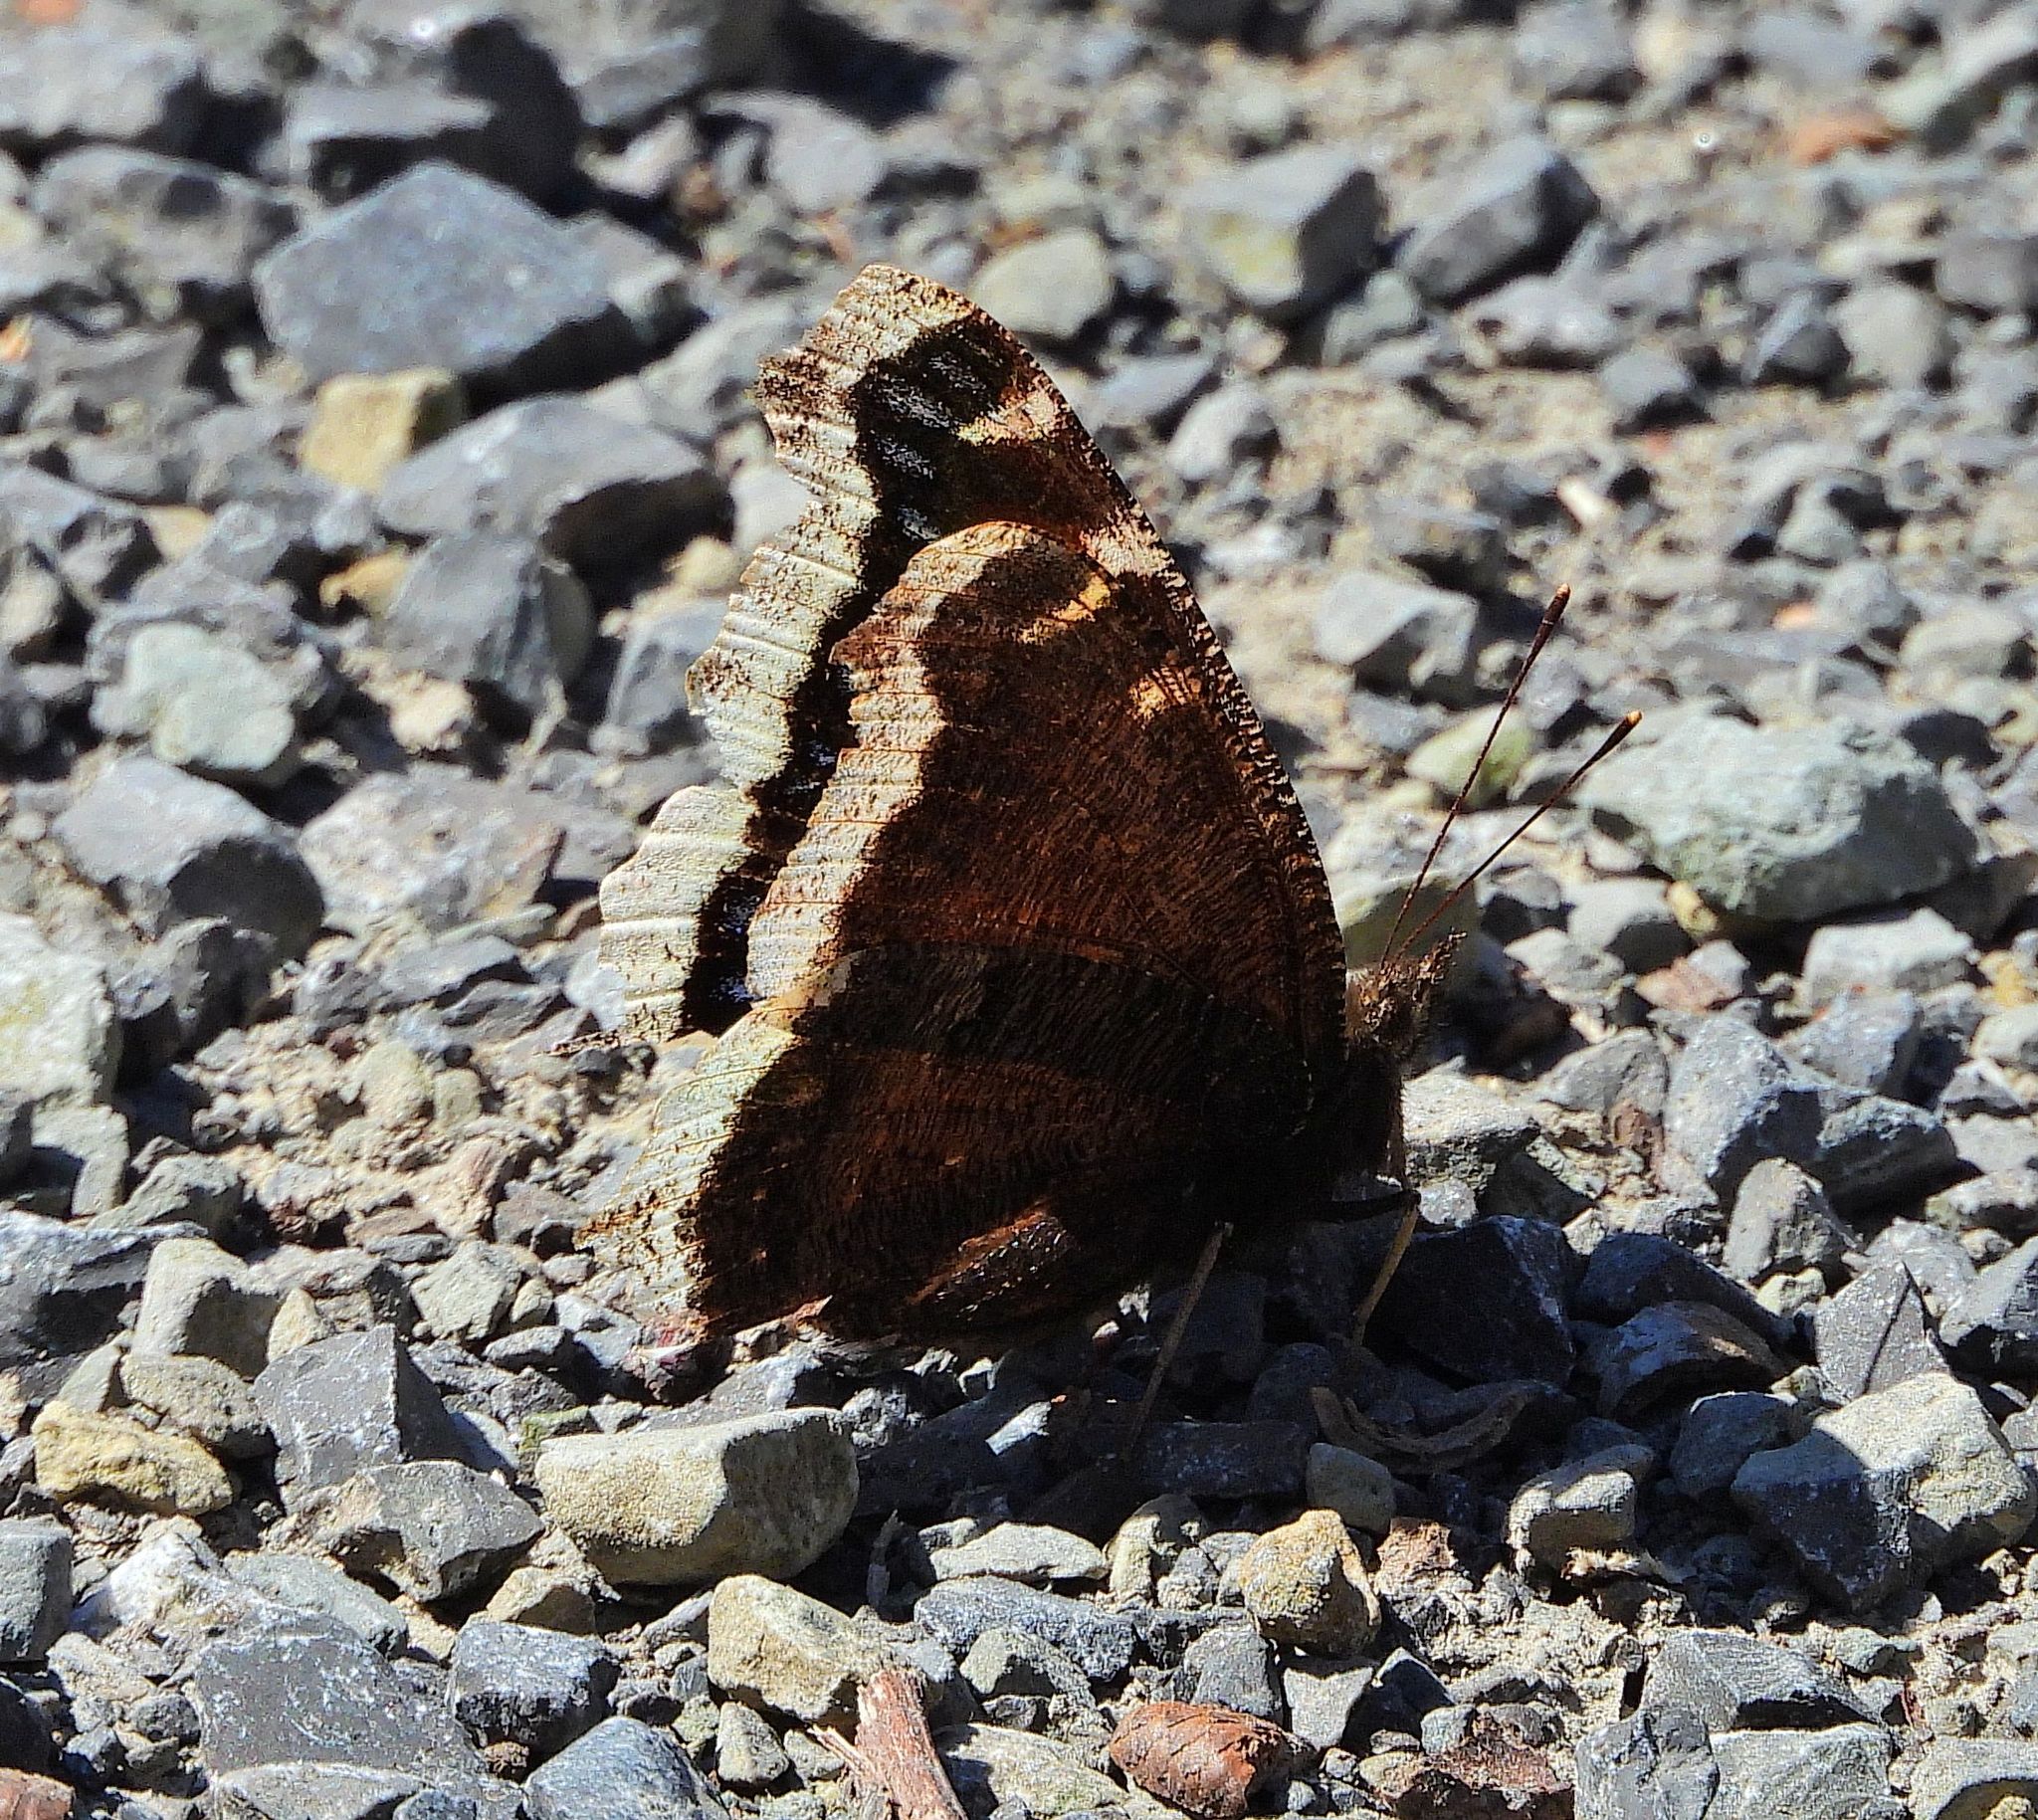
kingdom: Animalia
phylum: Arthropoda
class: Insecta
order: Lepidoptera
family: Nymphalidae
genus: Nymphalis
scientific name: Nymphalis antiopa
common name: Camberwell beauty
